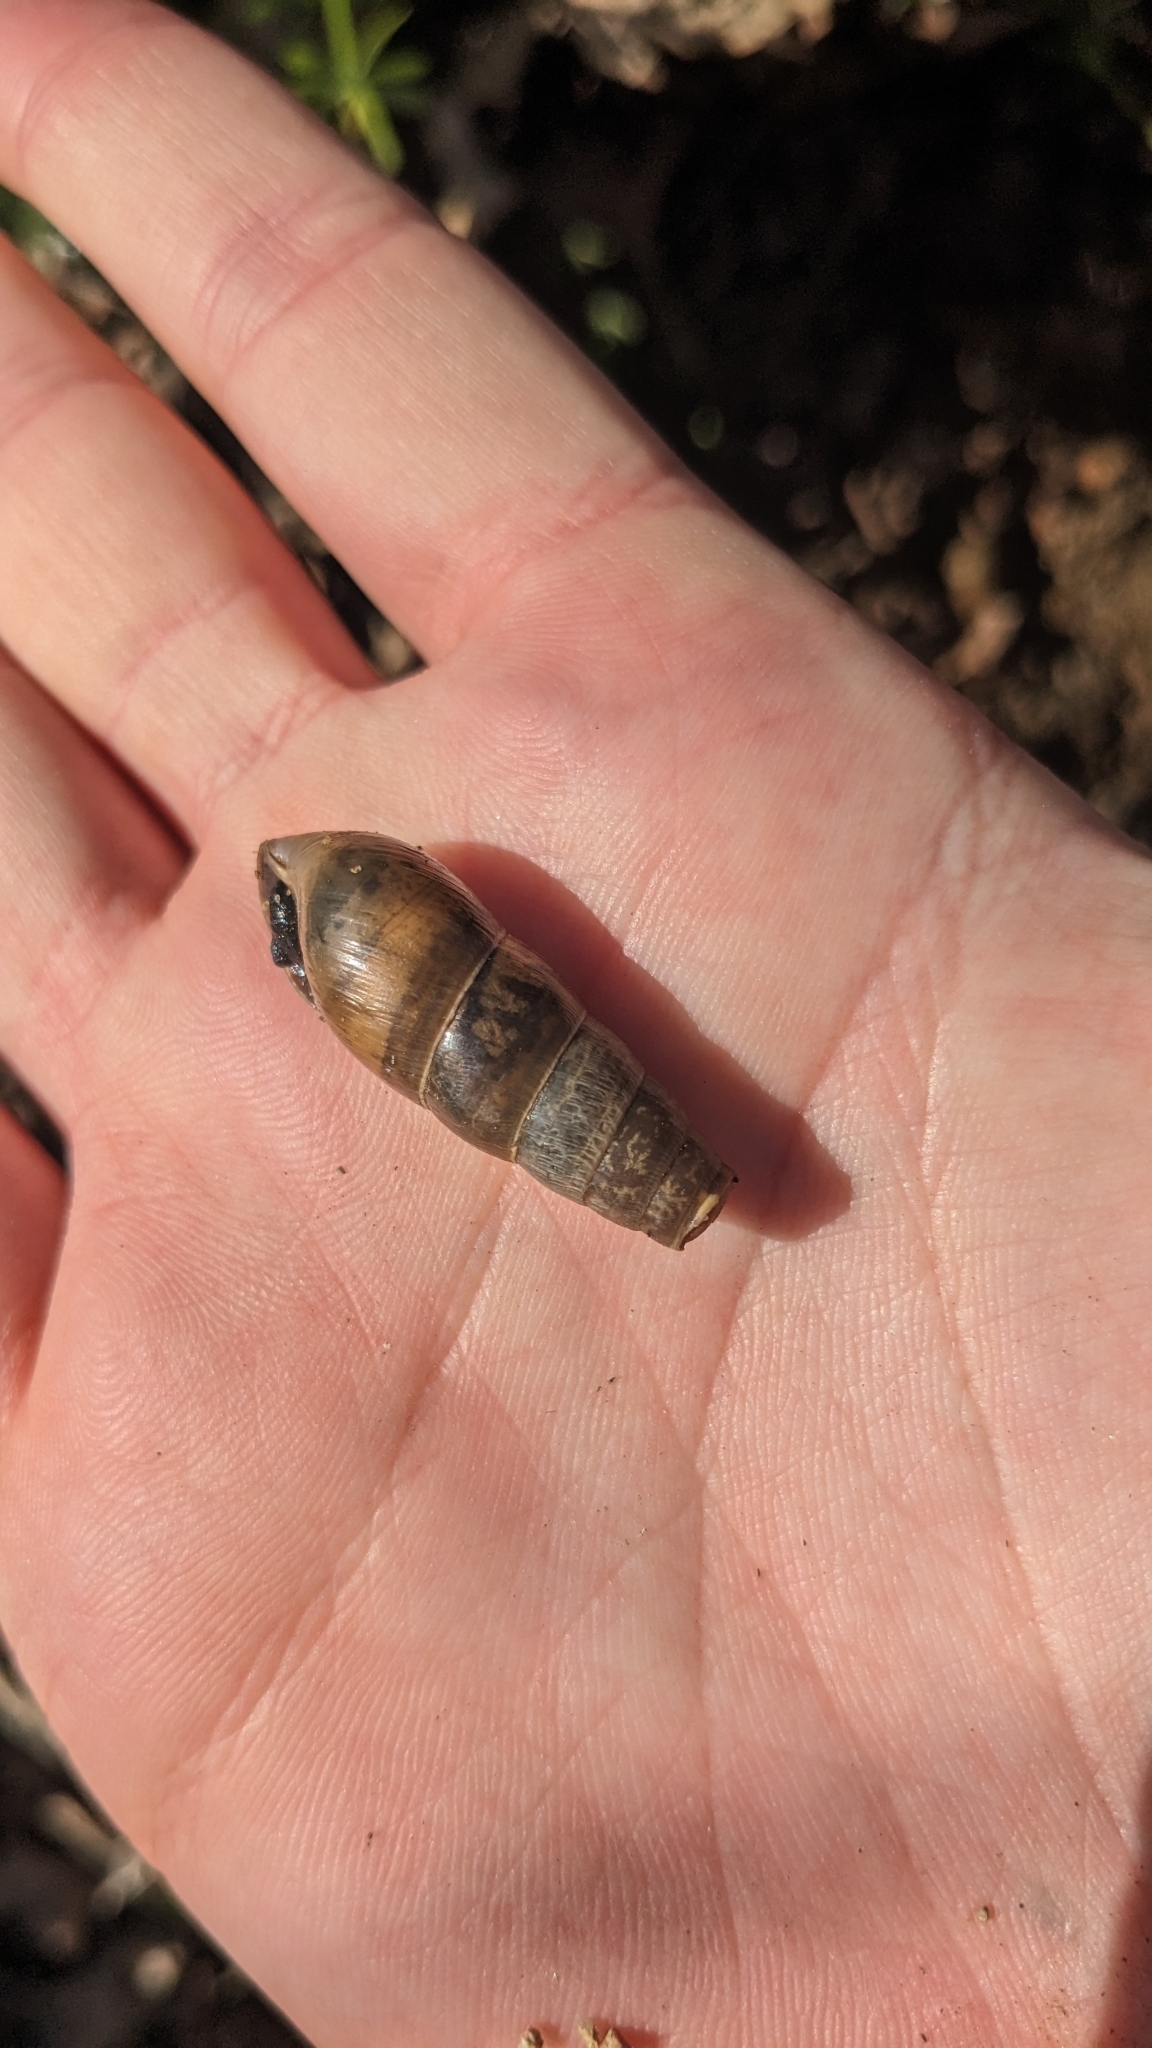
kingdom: Animalia
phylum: Mollusca
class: Gastropoda
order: Stylommatophora
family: Achatinidae
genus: Rumina
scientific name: Rumina decollata
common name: Decollate snail
